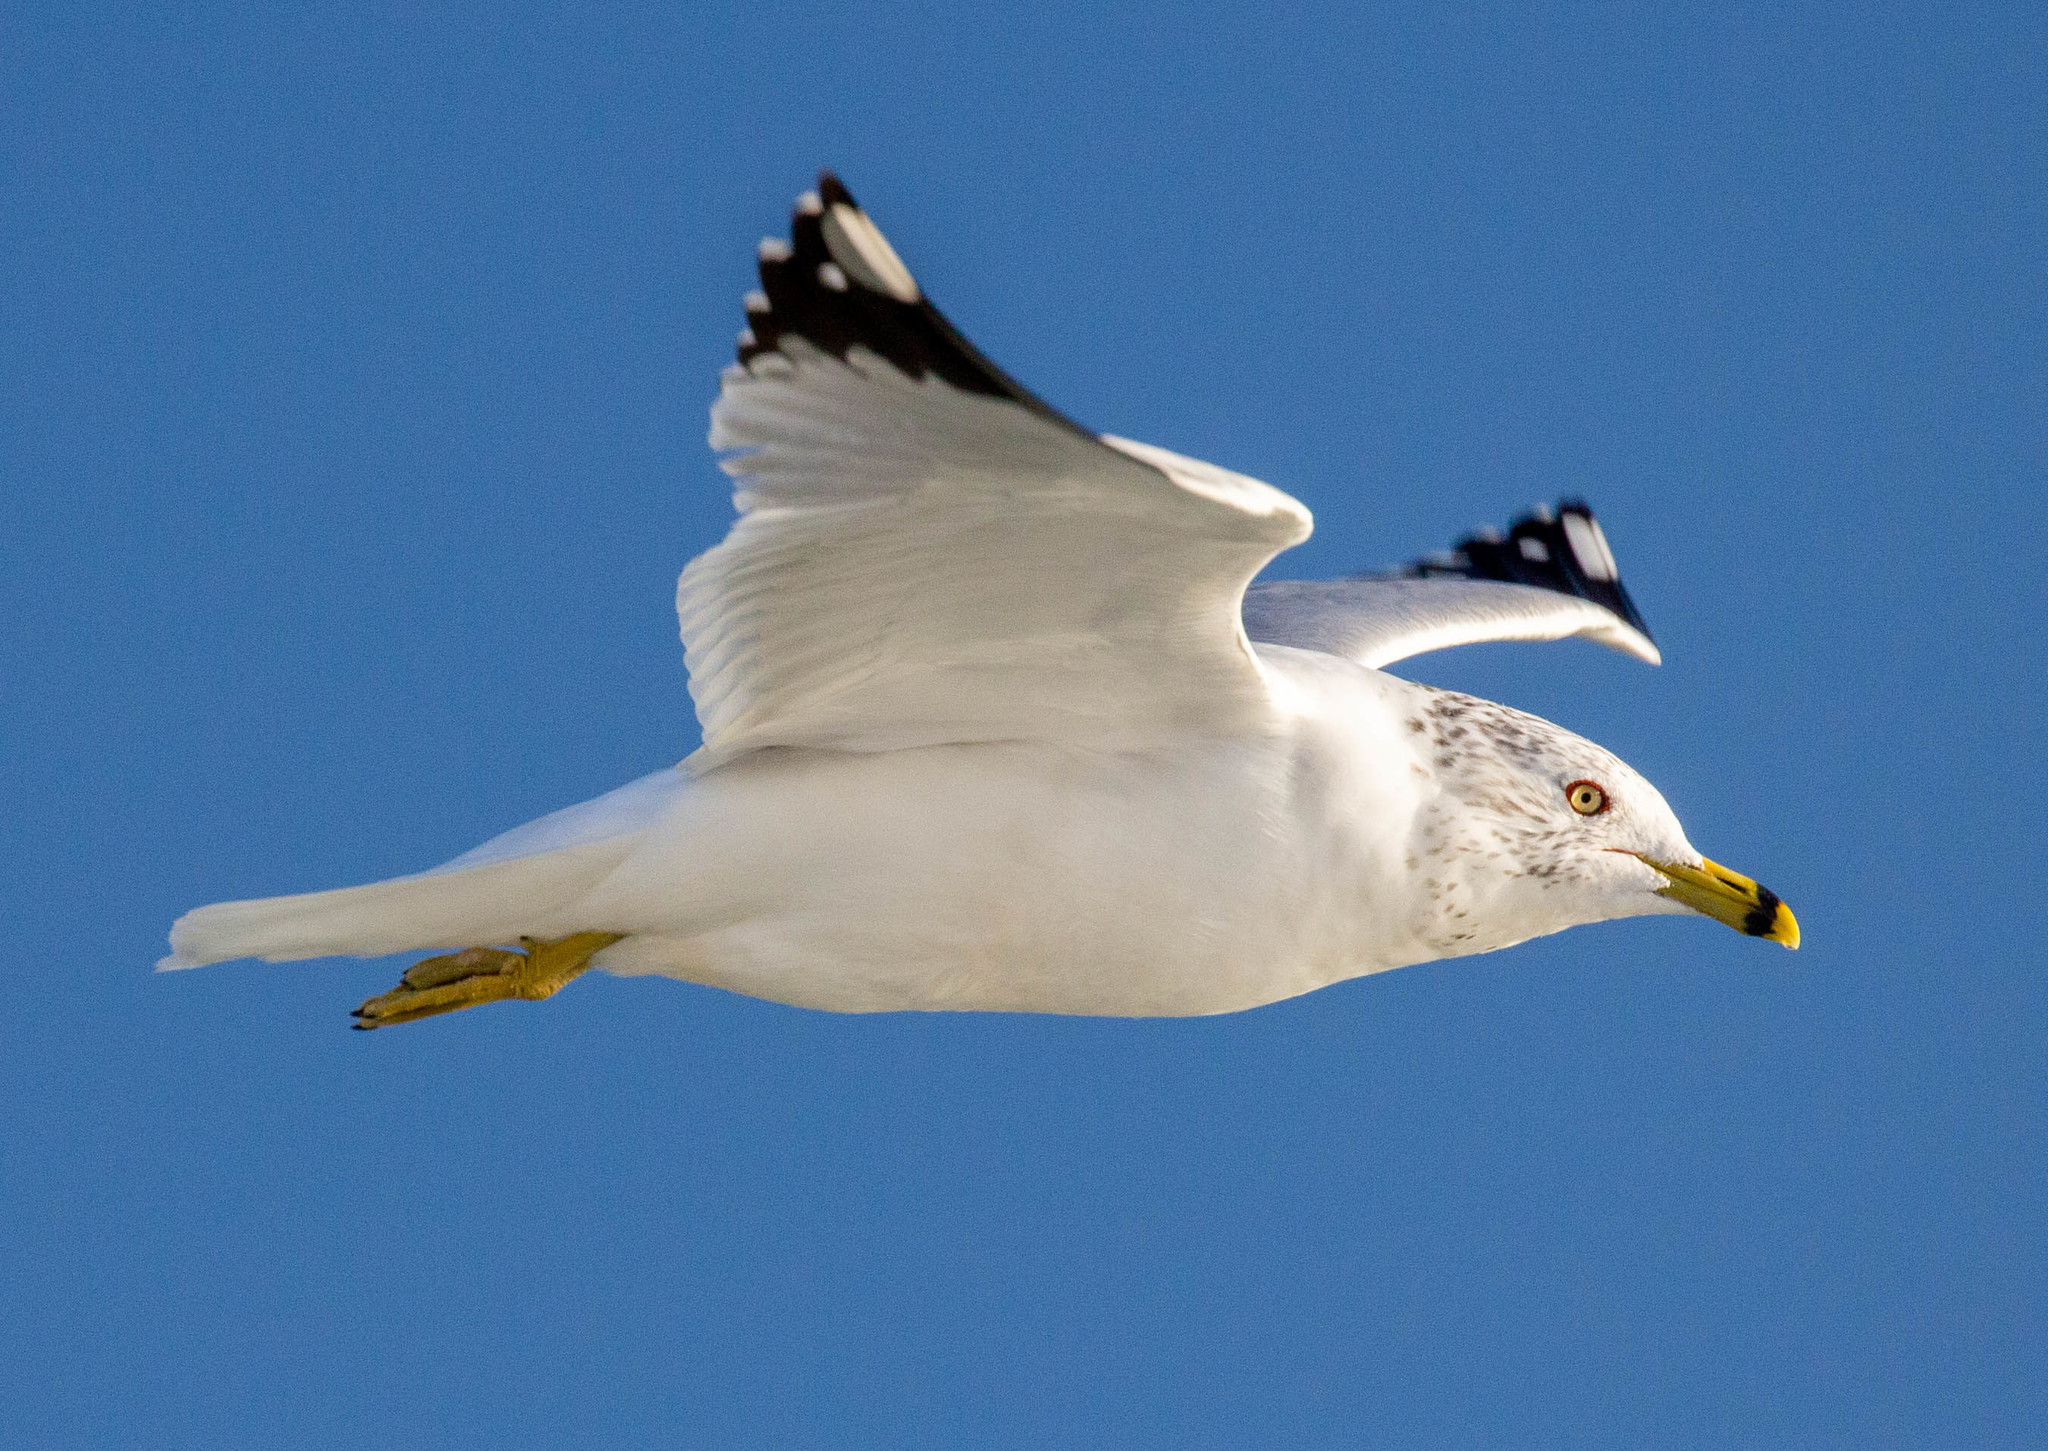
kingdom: Animalia
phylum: Chordata
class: Aves
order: Charadriiformes
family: Laridae
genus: Larus
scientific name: Larus delawarensis
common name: Ring-billed gull
